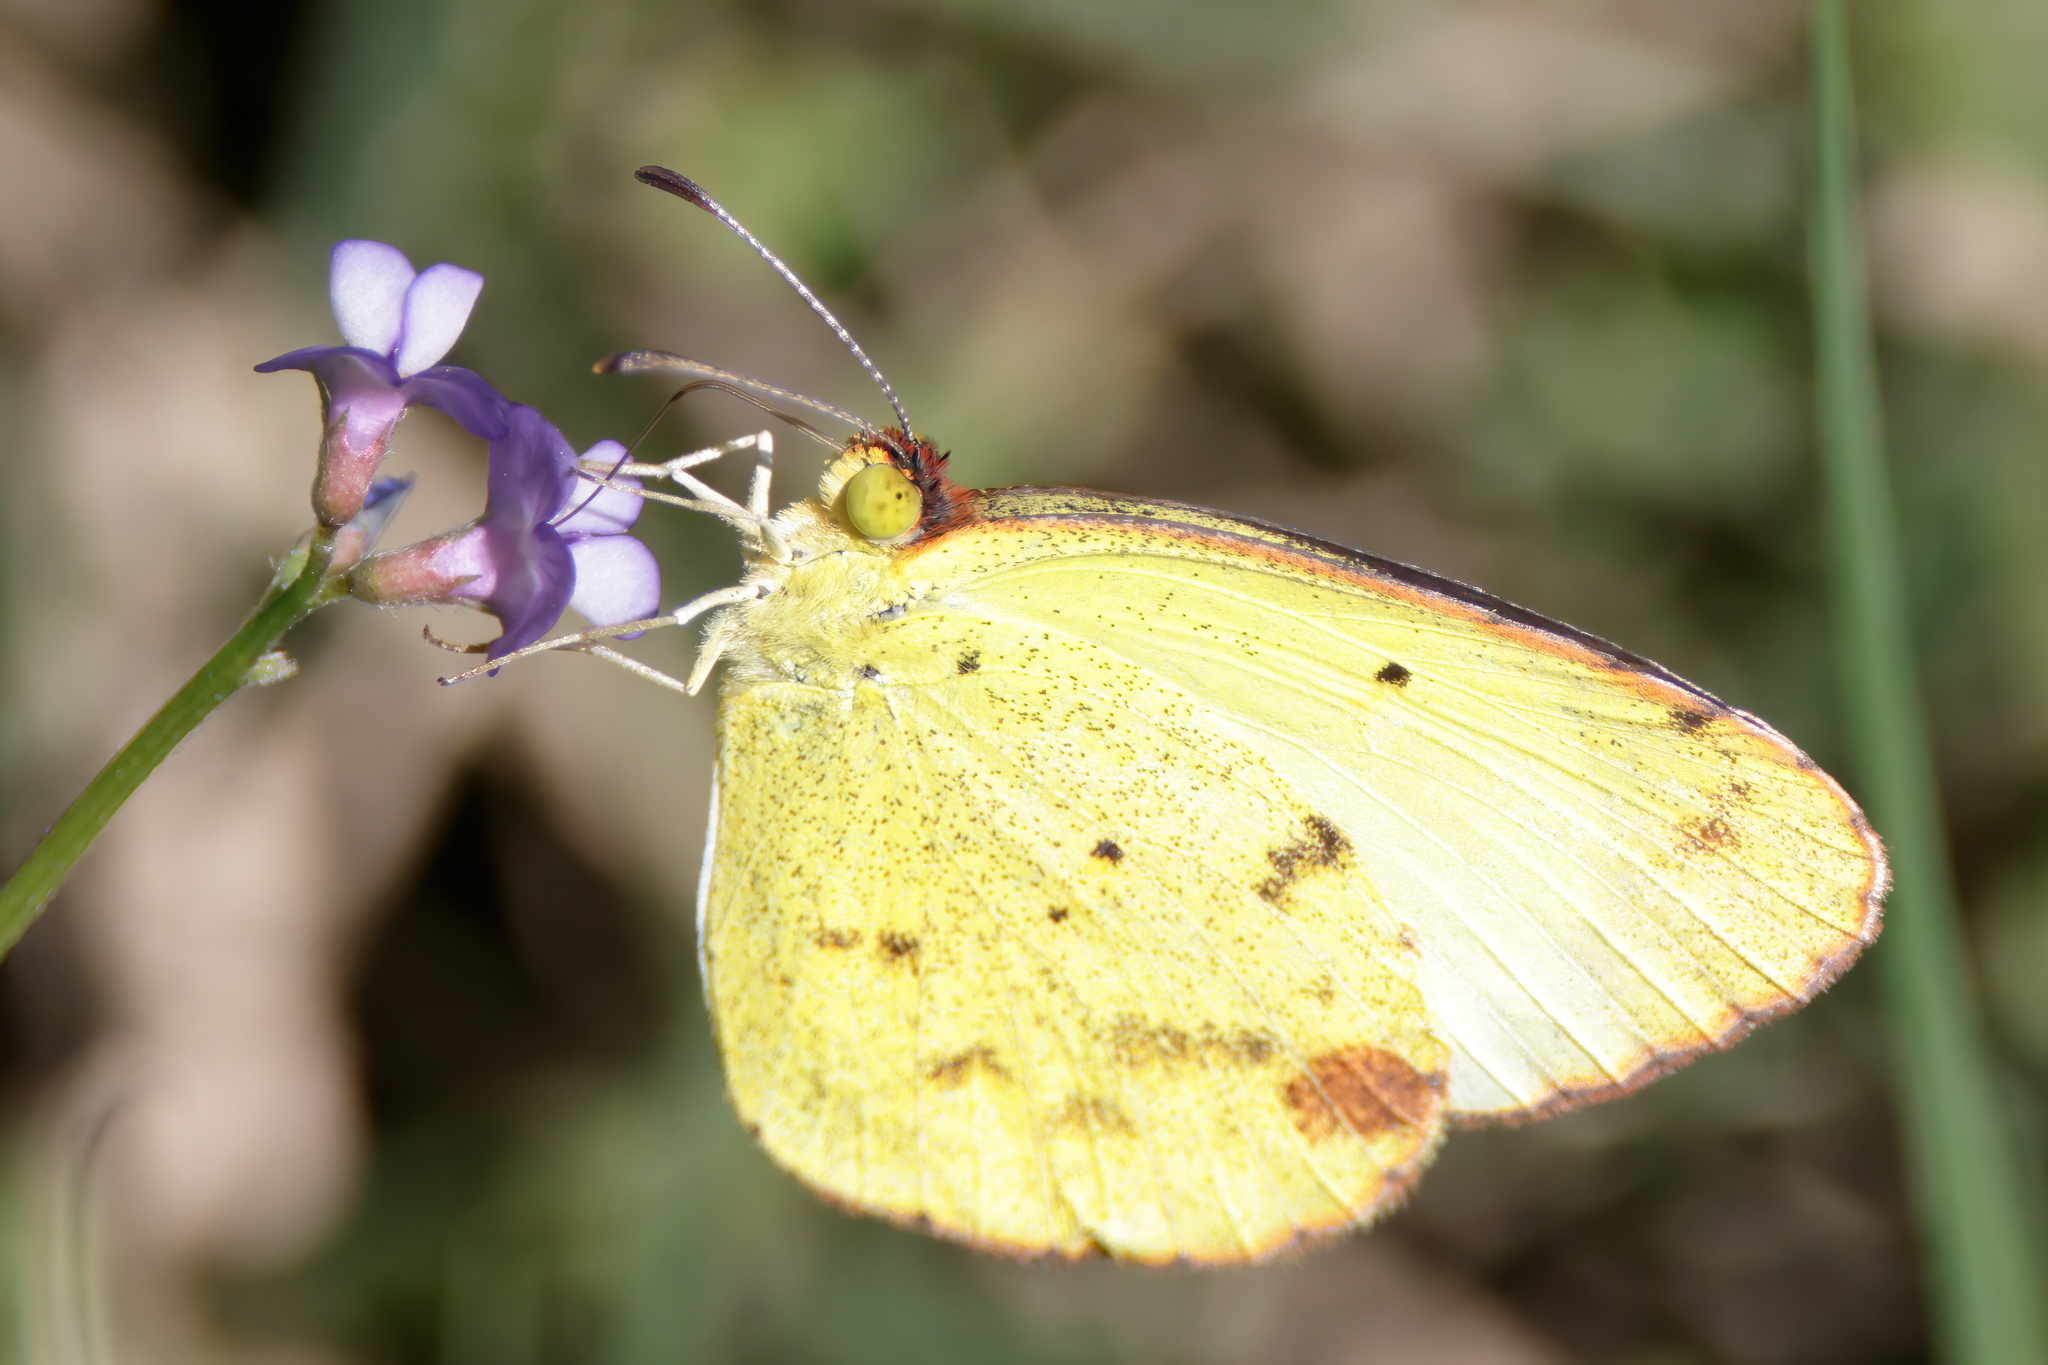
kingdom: Animalia
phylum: Arthropoda
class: Insecta
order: Lepidoptera
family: Pieridae
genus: Pyrisitia
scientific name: Pyrisitia lisa
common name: Little yellow
